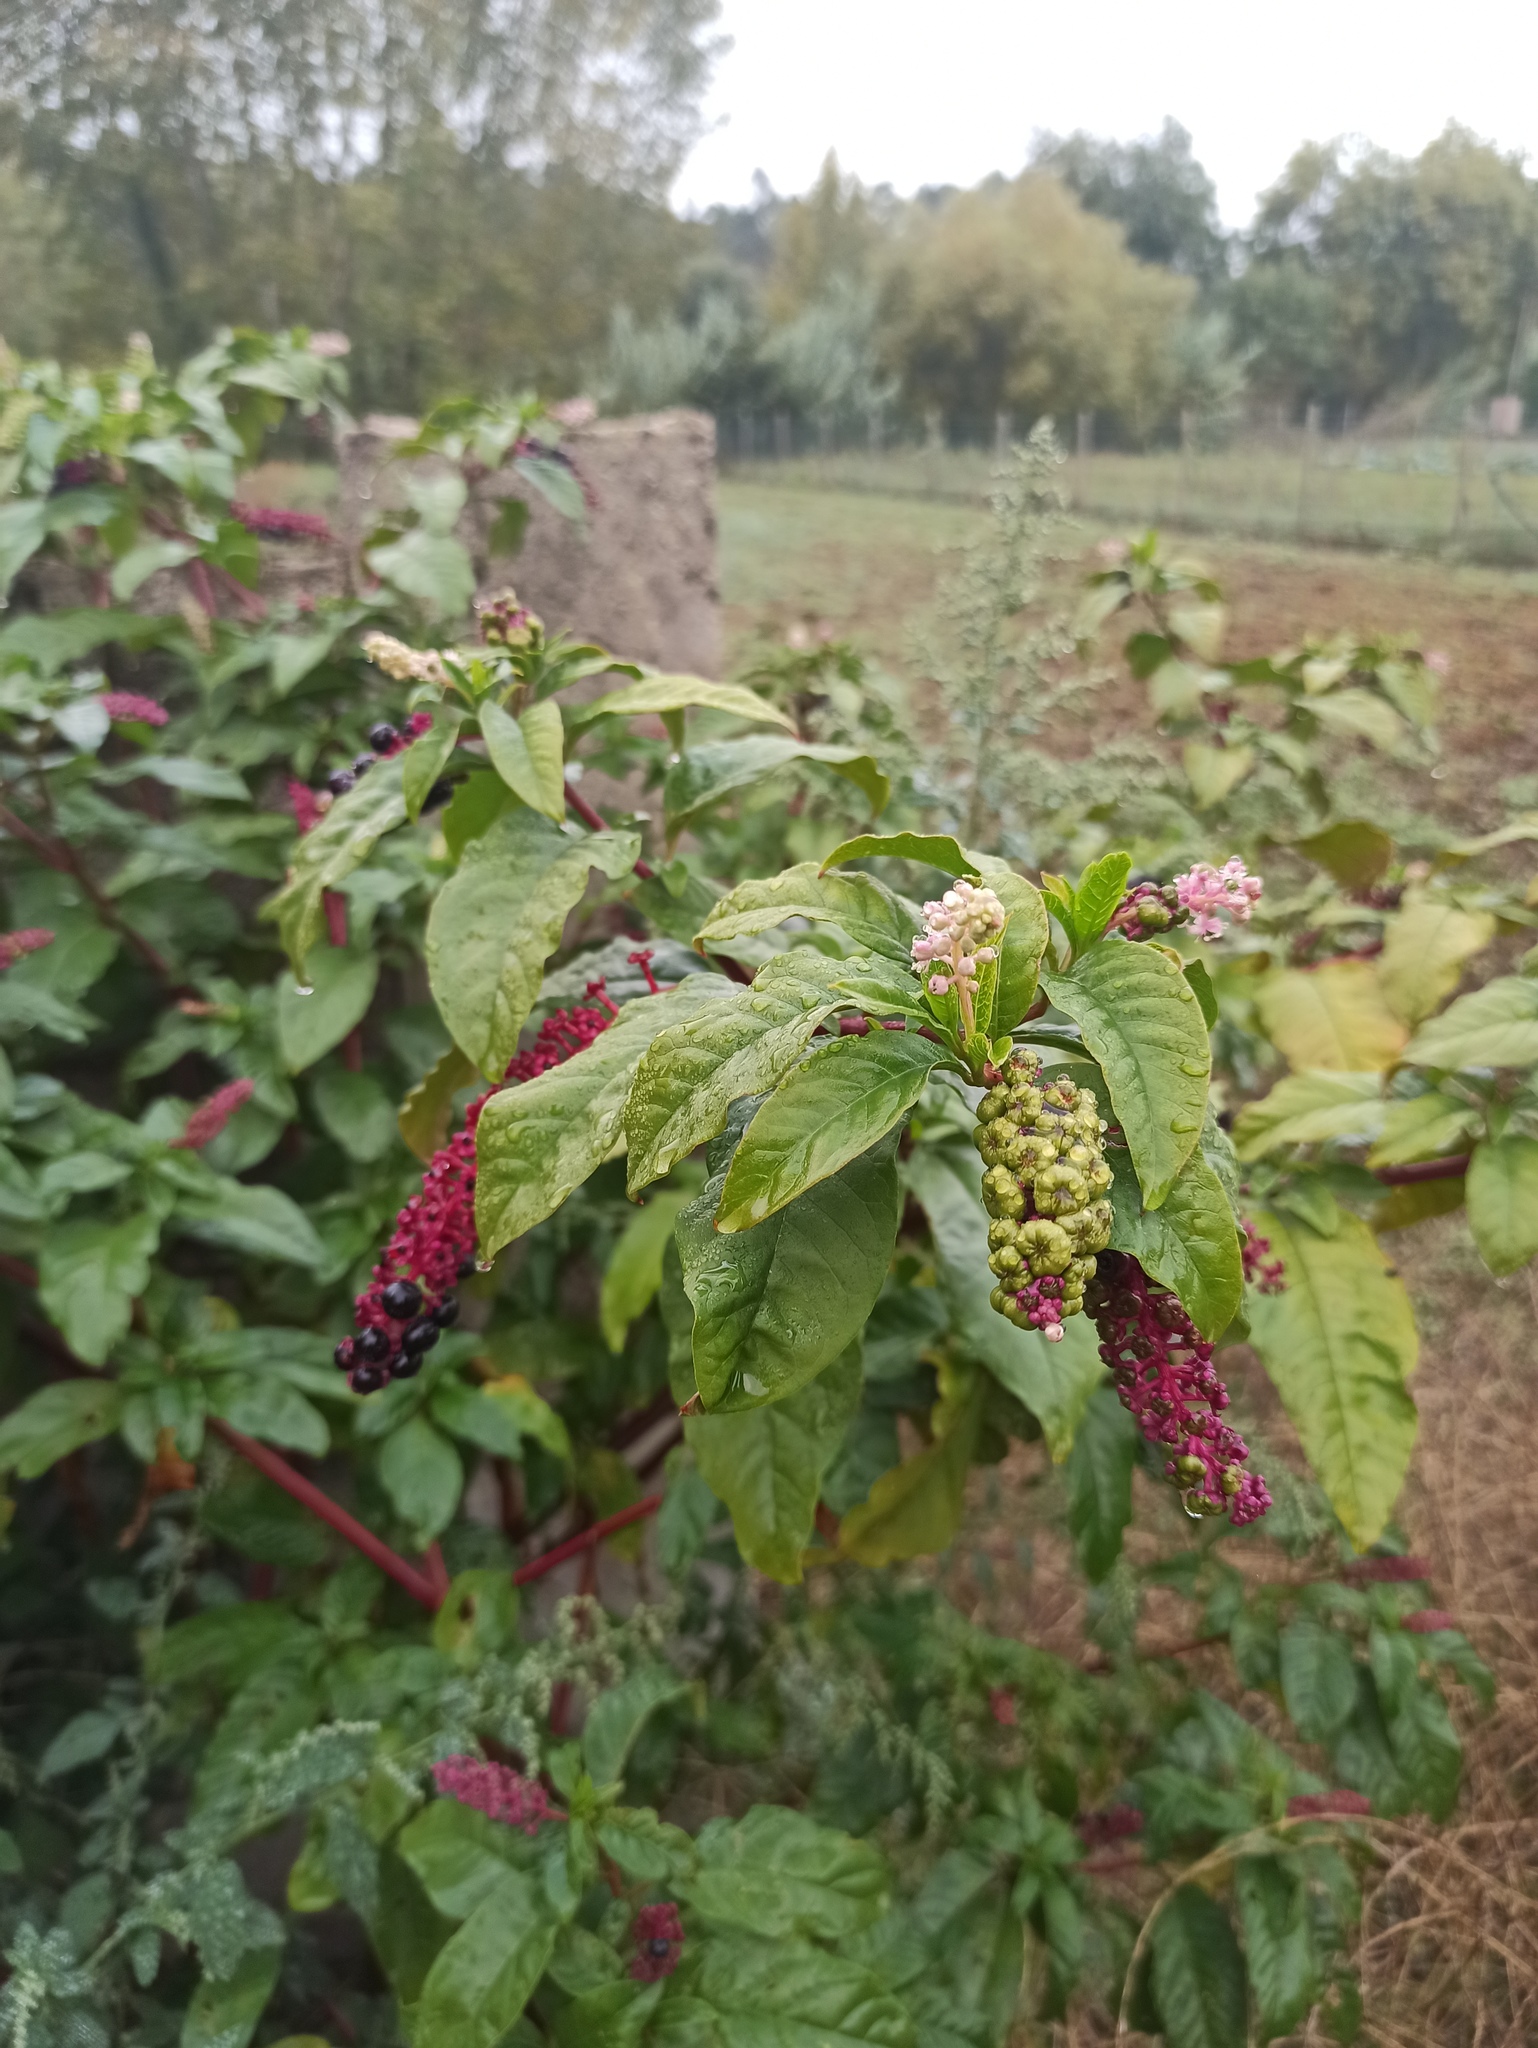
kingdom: Plantae
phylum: Tracheophyta
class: Magnoliopsida
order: Caryophyllales
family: Phytolaccaceae
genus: Phytolacca
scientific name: Phytolacca americana
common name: American pokeweed
